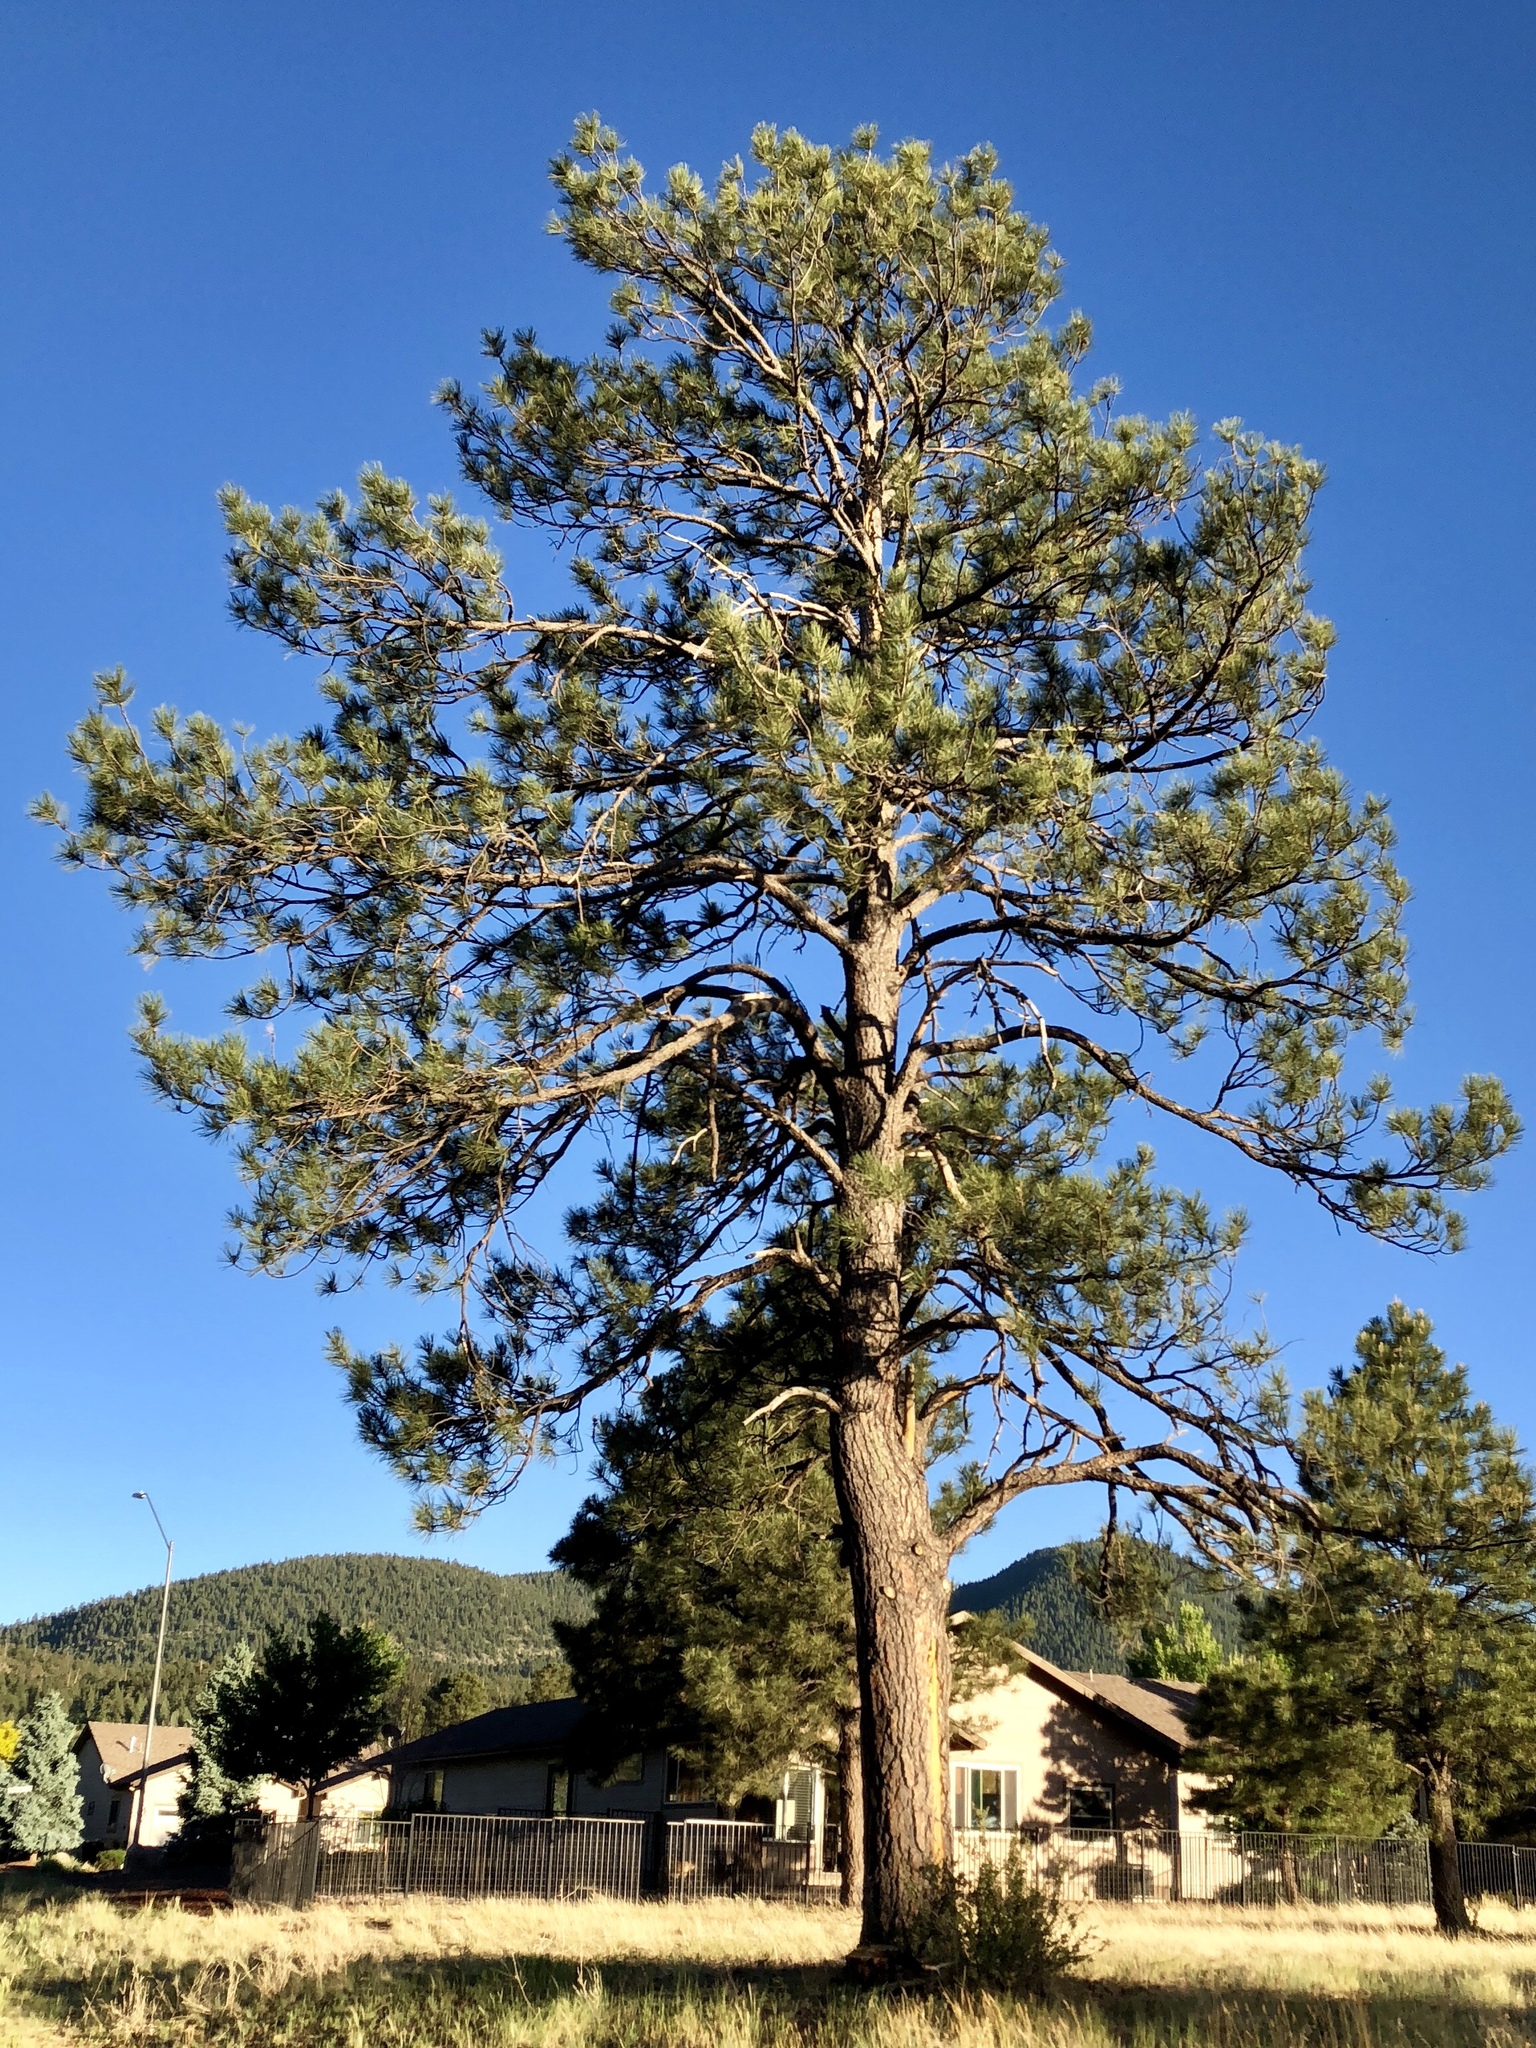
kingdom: Plantae
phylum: Tracheophyta
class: Pinopsida
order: Pinales
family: Pinaceae
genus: Pinus
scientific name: Pinus ponderosa
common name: Western yellow-pine
